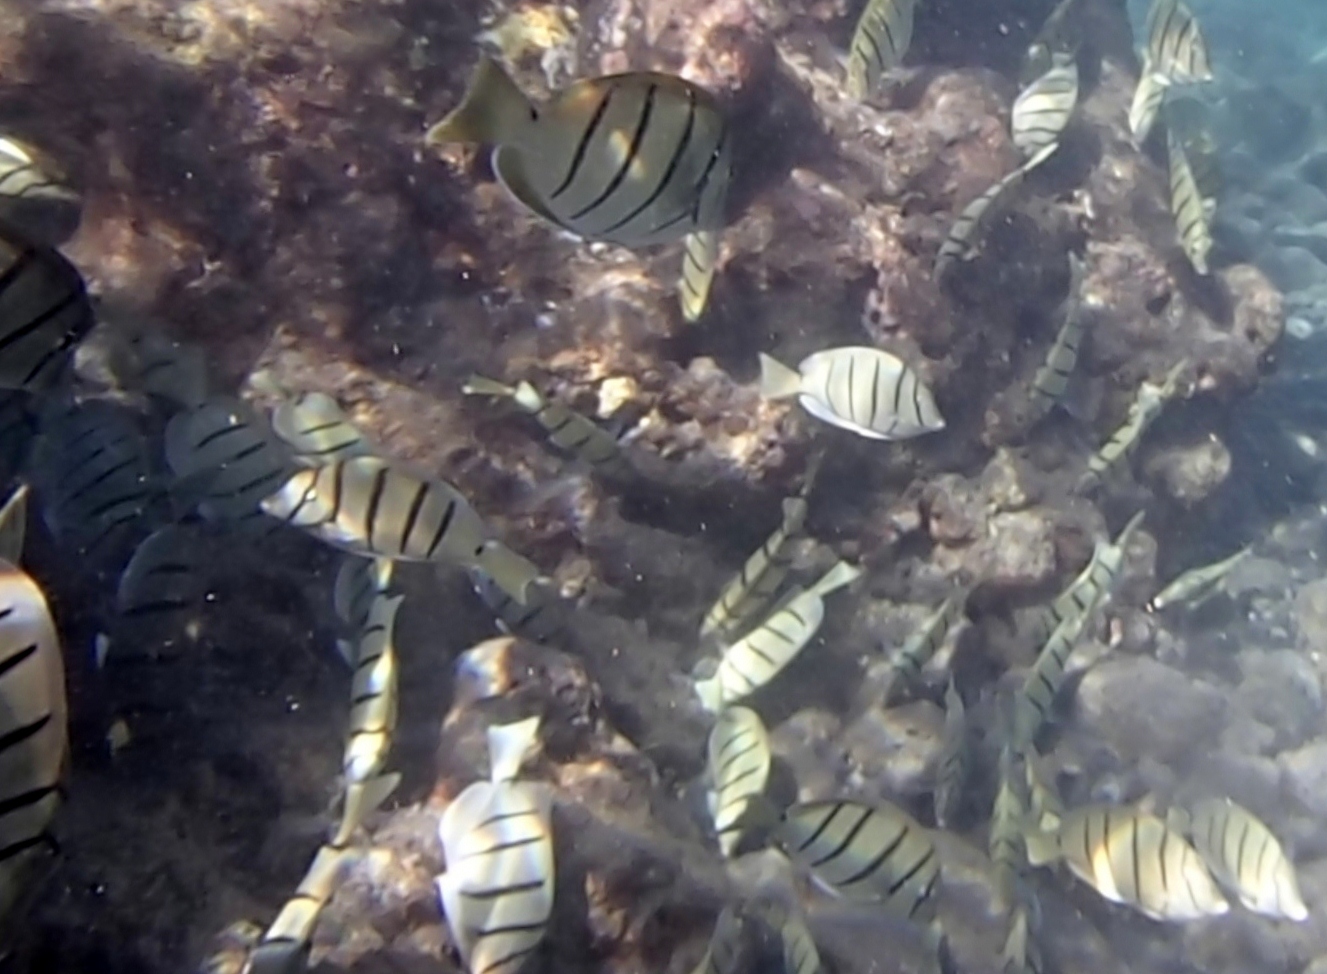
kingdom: Animalia
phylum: Chordata
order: Perciformes
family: Acanthuridae
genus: Acanthurus
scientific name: Acanthurus triostegus
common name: Convict surgeonfish
